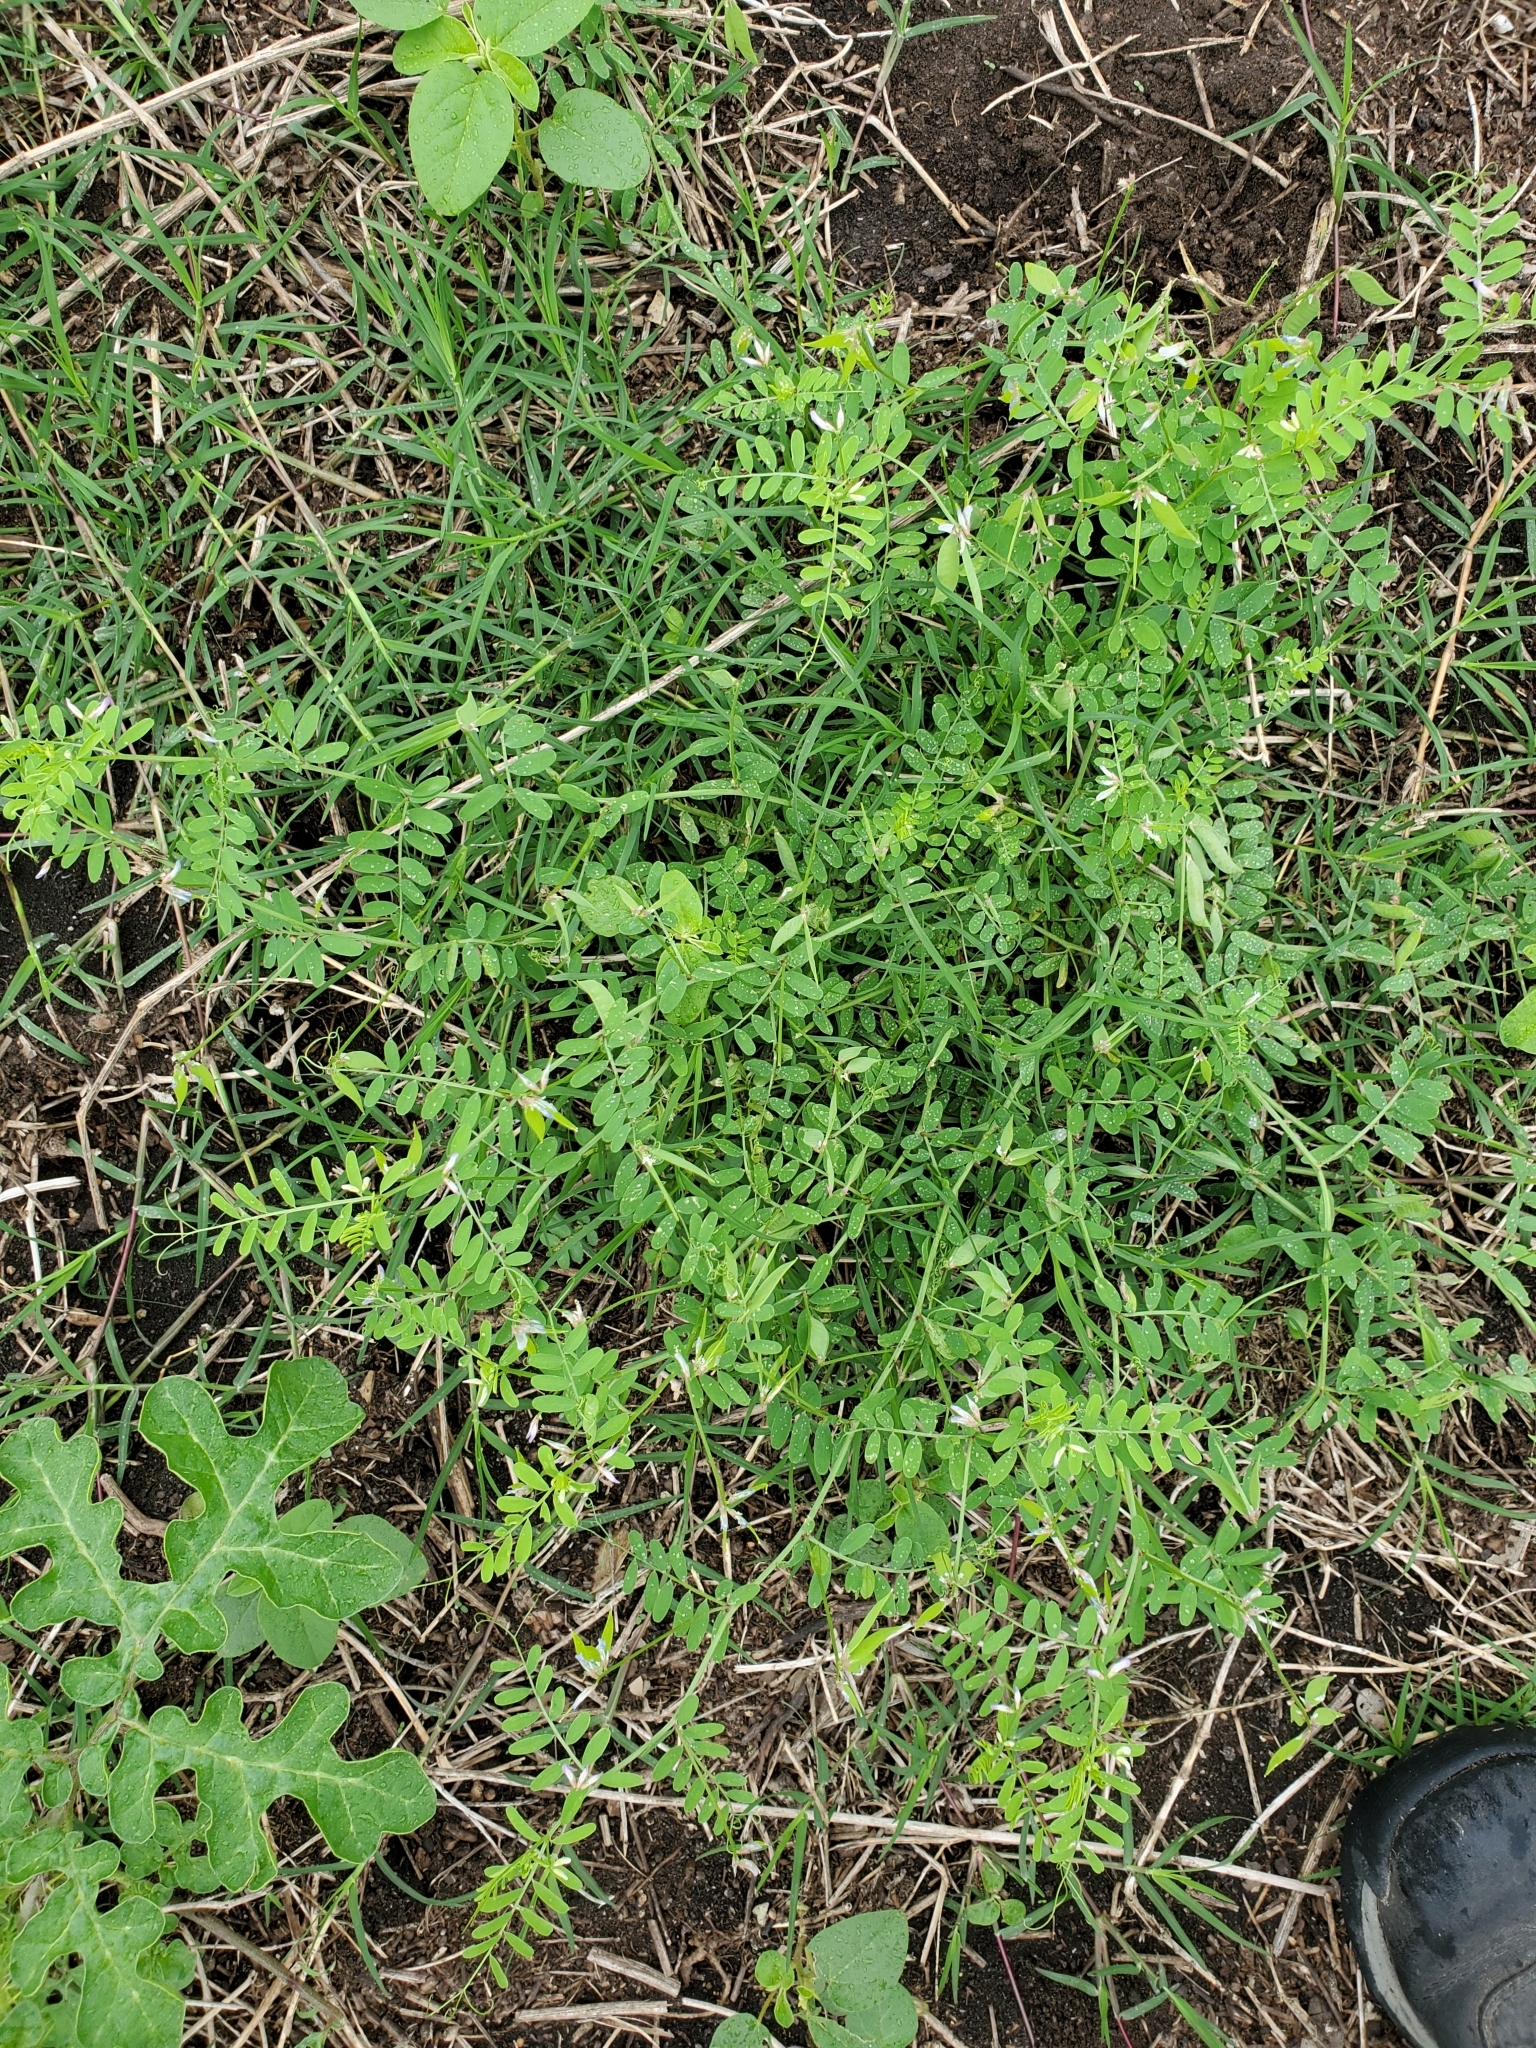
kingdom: Plantae
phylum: Tracheophyta
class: Magnoliopsida
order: Fabales
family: Fabaceae
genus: Vicia
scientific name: Vicia ludoviciana
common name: Louisiana vetch
